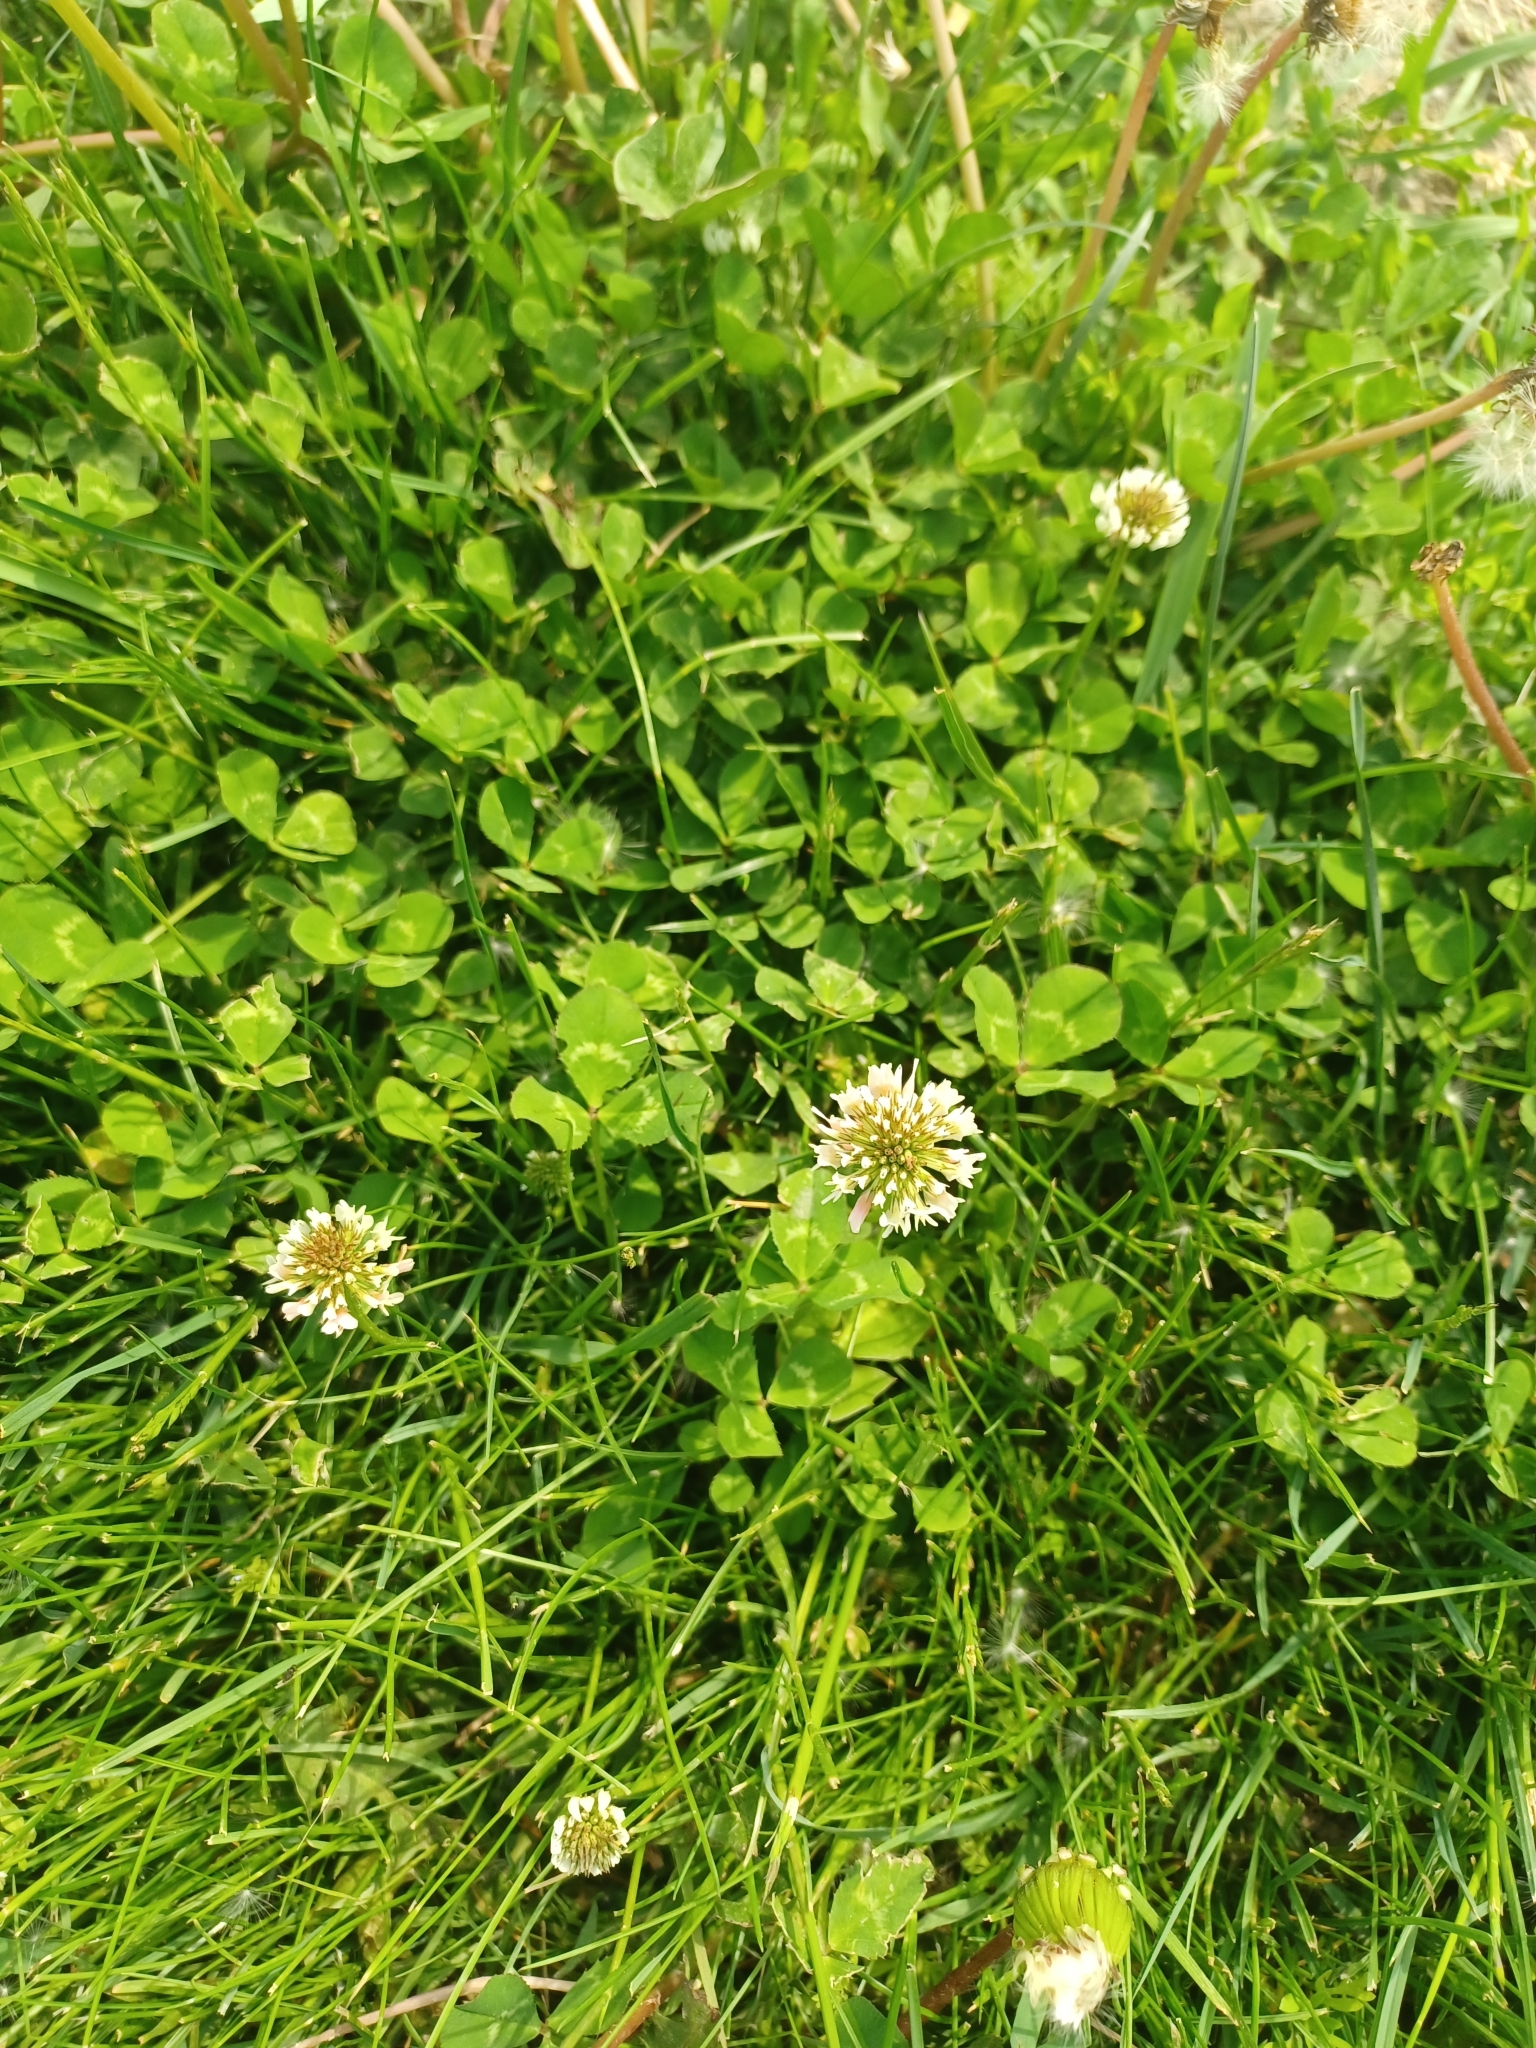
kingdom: Plantae
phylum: Tracheophyta
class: Magnoliopsida
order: Fabales
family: Fabaceae
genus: Trifolium
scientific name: Trifolium repens
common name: White clover
